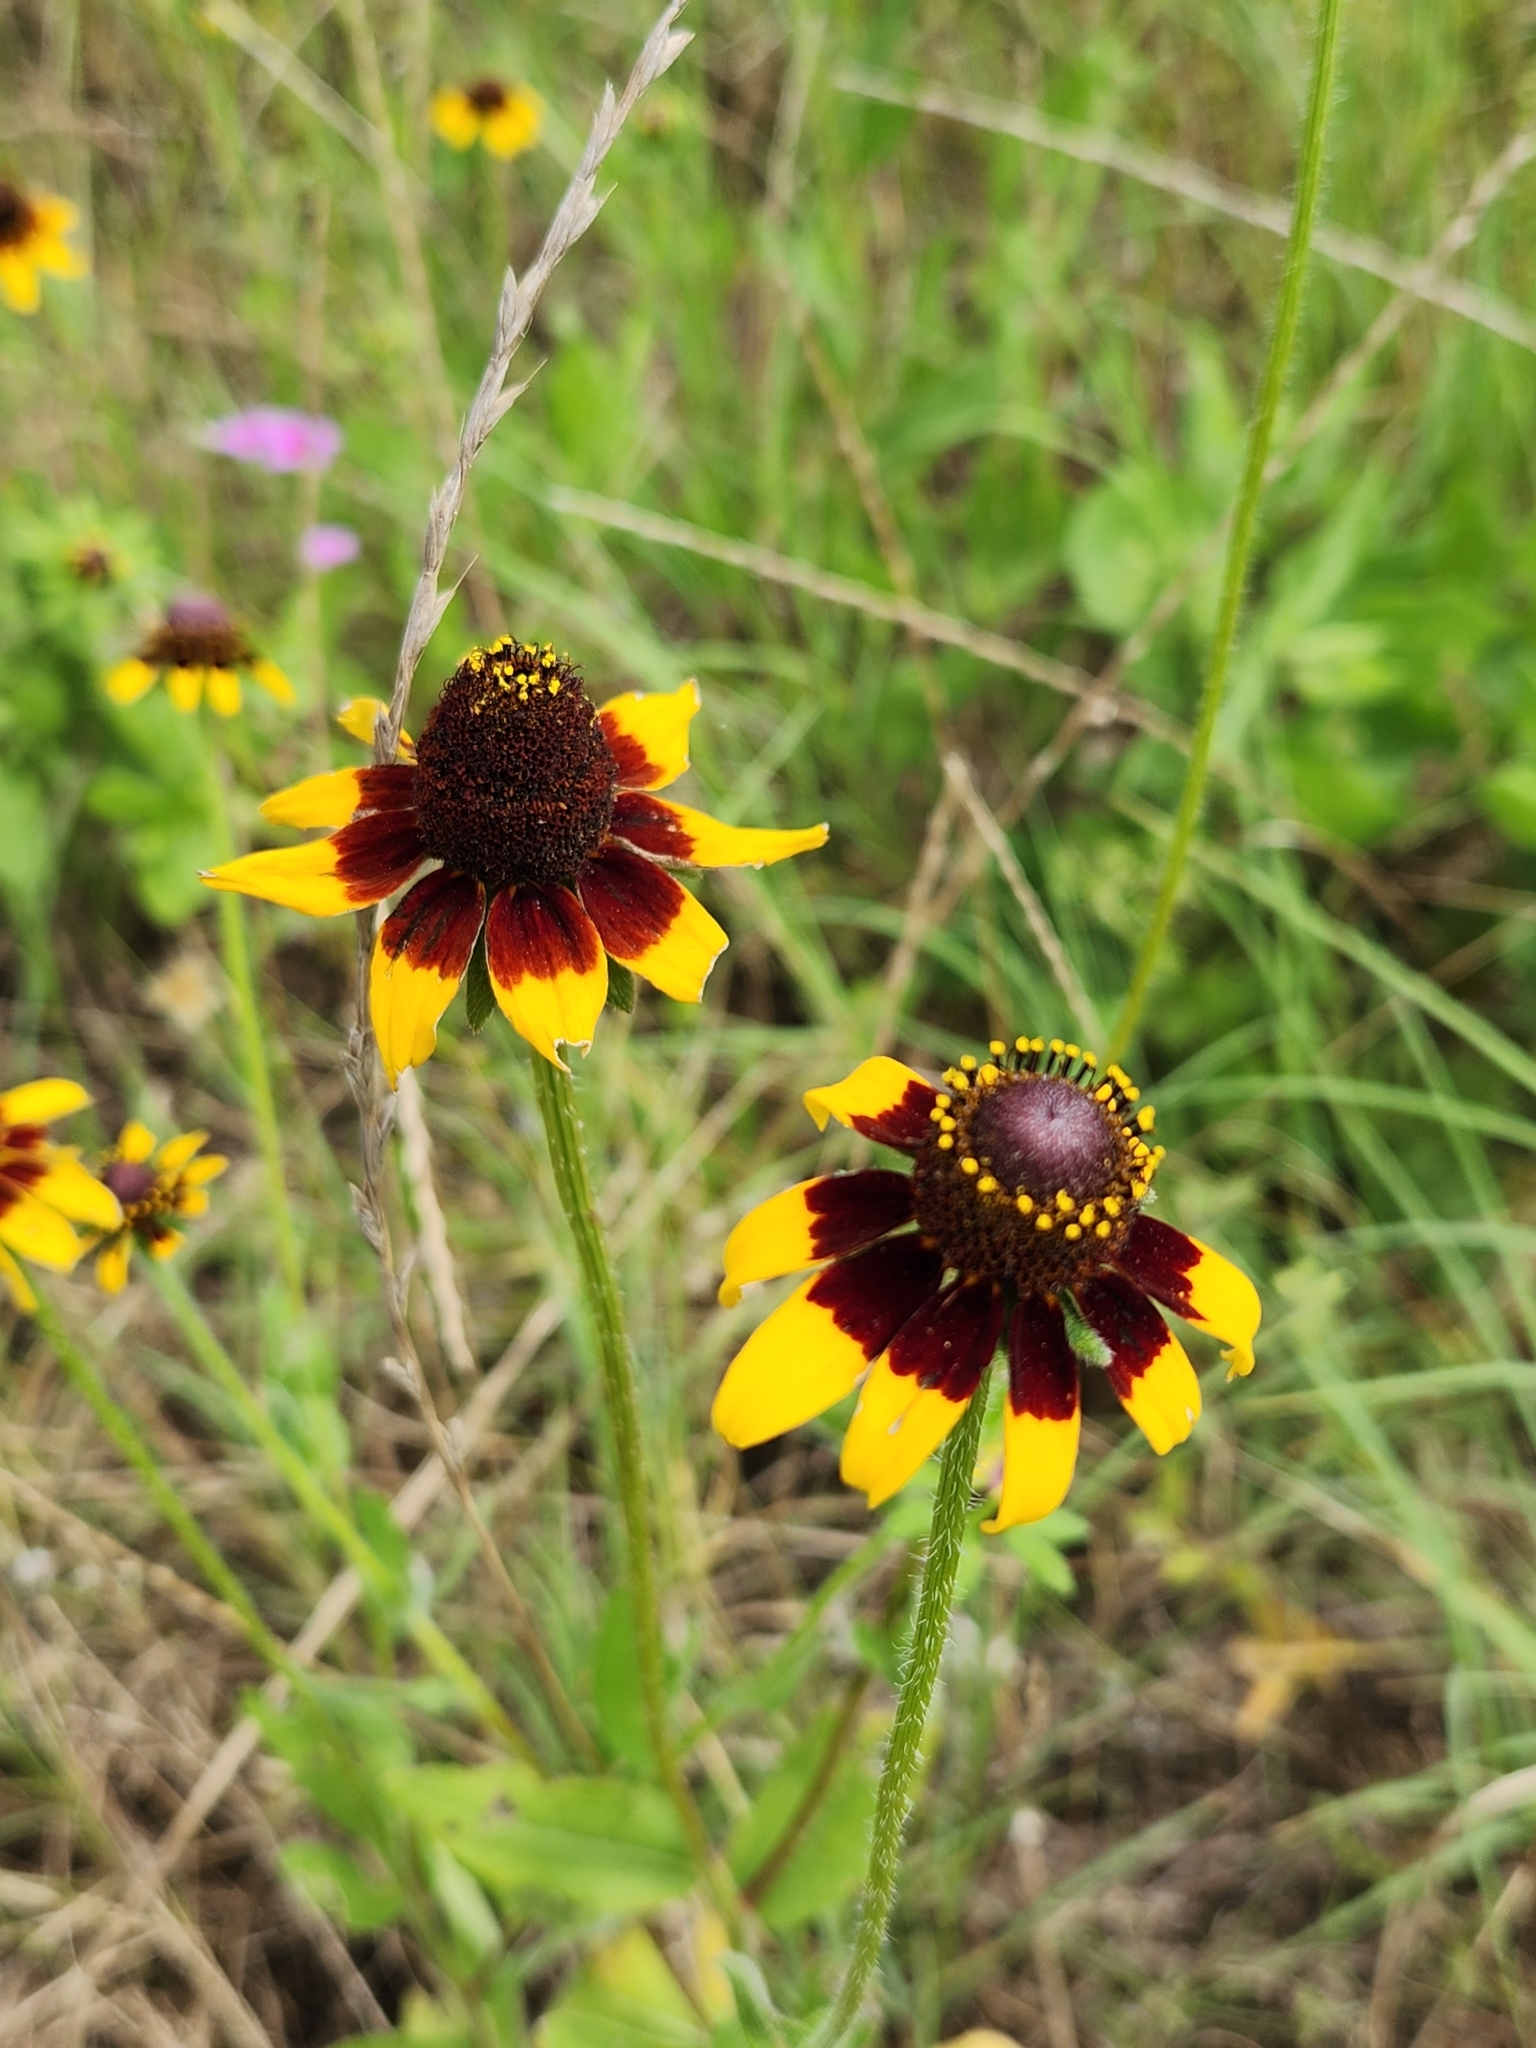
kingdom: Plantae
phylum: Tracheophyta
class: Magnoliopsida
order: Asterales
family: Asteraceae
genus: Rudbeckia
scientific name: Rudbeckia hirta
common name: Black-eyed-susan
